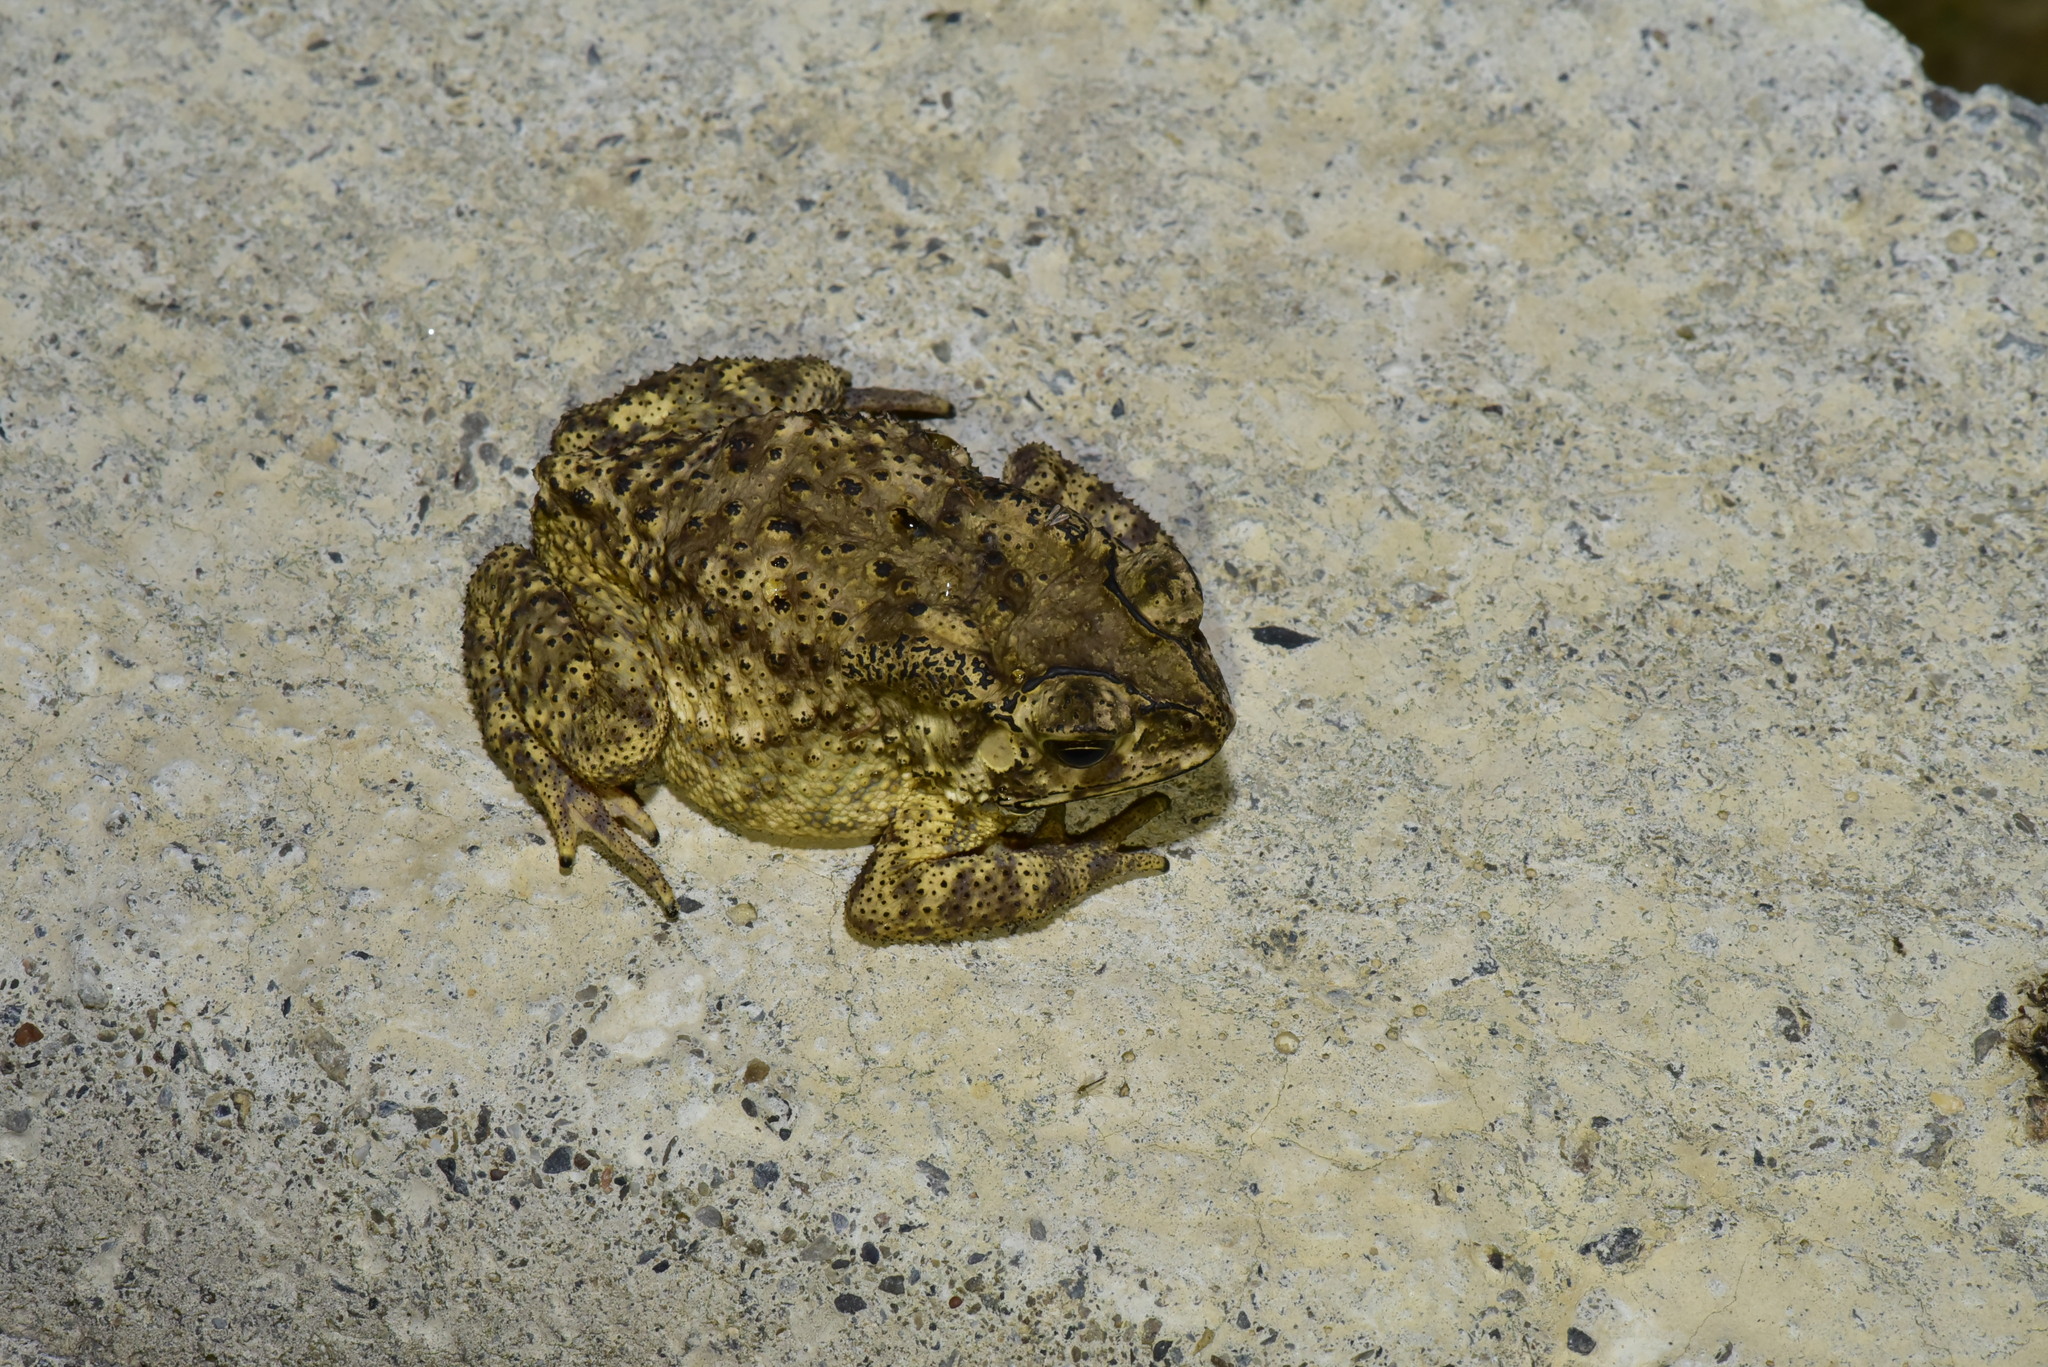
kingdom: Animalia
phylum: Chordata
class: Amphibia
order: Anura
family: Bufonidae
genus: Duttaphrynus
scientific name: Duttaphrynus melanostictus
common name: Common sunda toad
